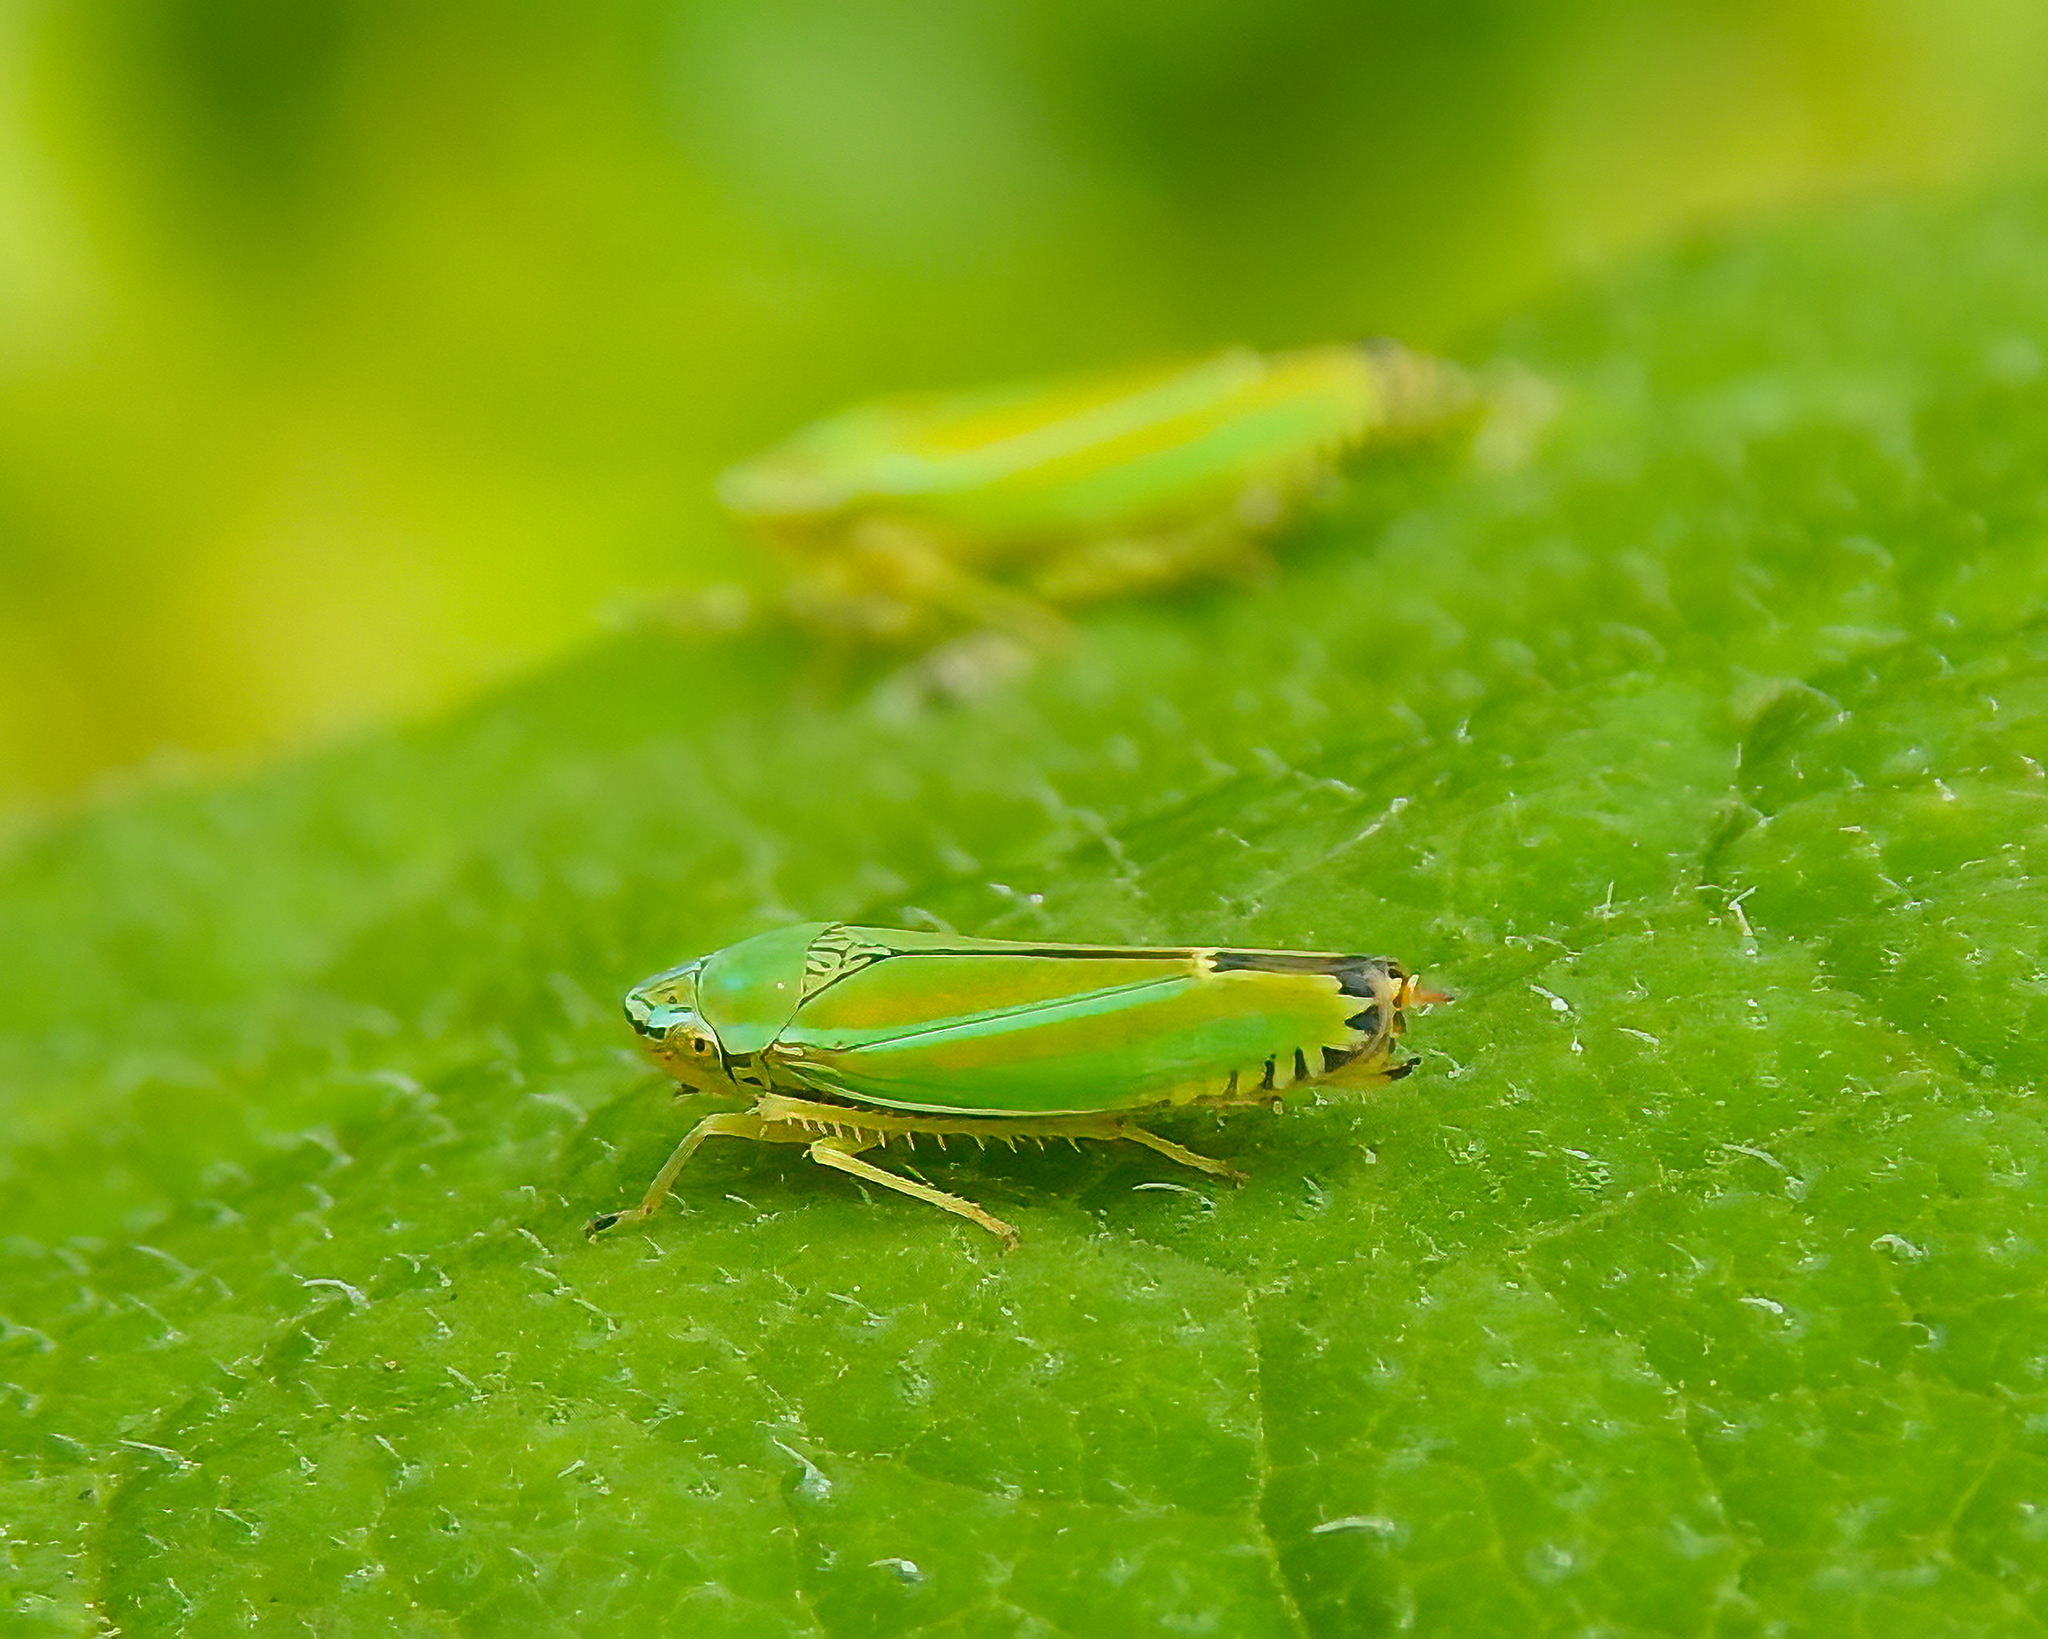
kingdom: Animalia
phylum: Arthropoda
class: Insecta
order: Hemiptera
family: Cicadellidae
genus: Graphocephala
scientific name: Graphocephala versuta
